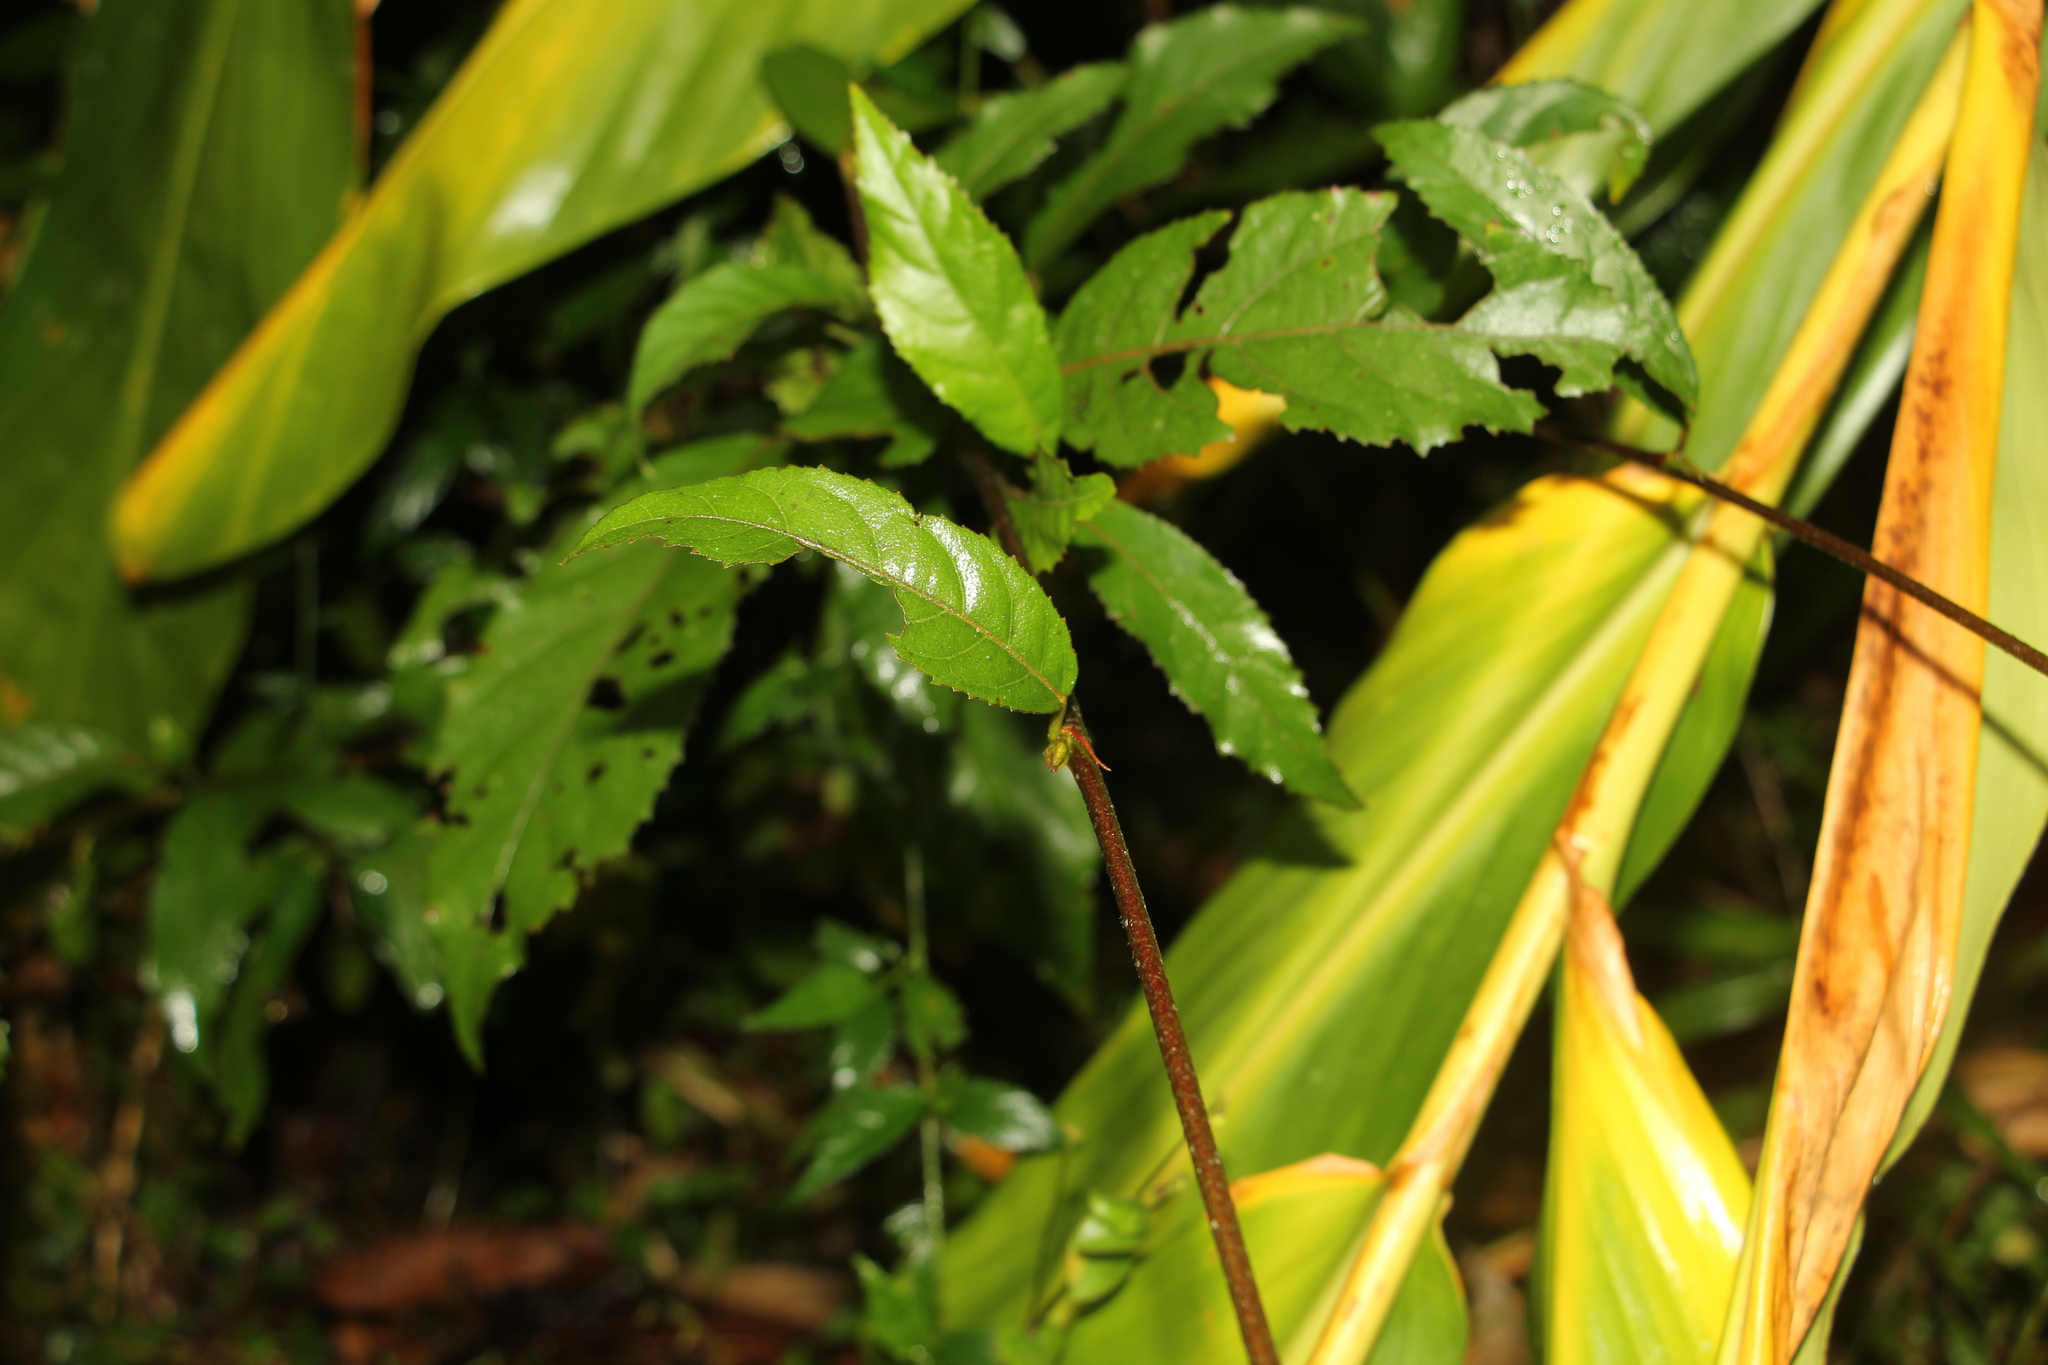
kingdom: Plantae
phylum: Tracheophyta
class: Magnoliopsida
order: Malvales
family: Malvaceae
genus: Pavonia
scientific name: Pavonia fruticosa
